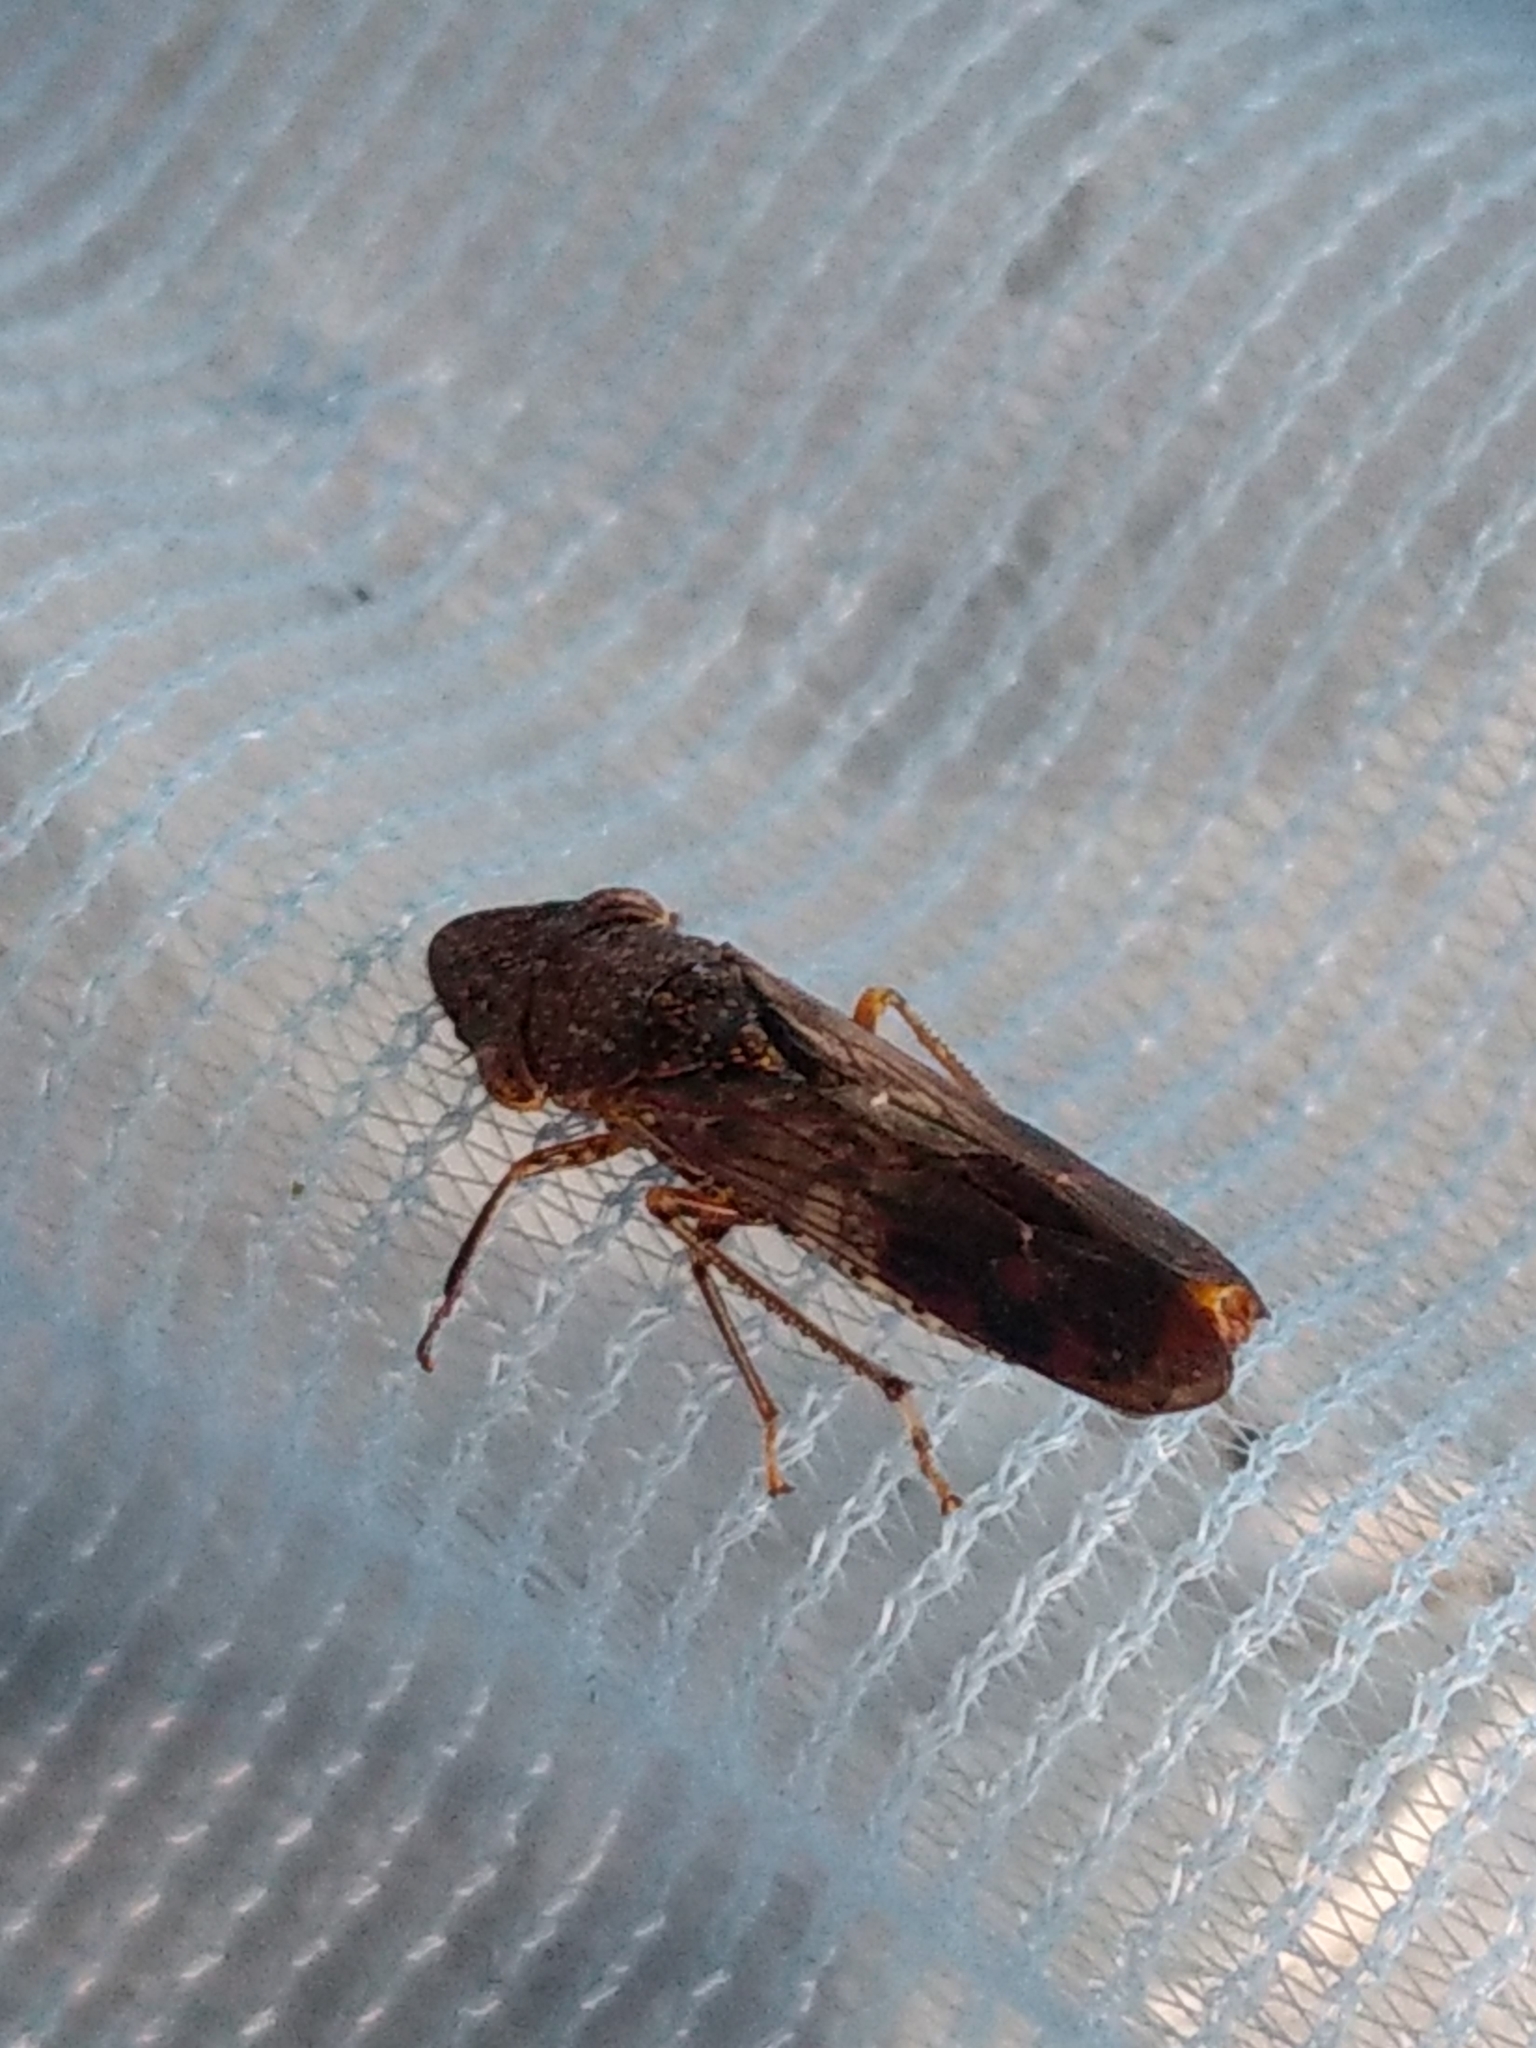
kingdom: Animalia
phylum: Arthropoda
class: Insecta
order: Hemiptera
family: Cicadellidae
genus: Homalodisca
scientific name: Homalodisca vitripennis
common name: Glassy-winged sharpshooter
